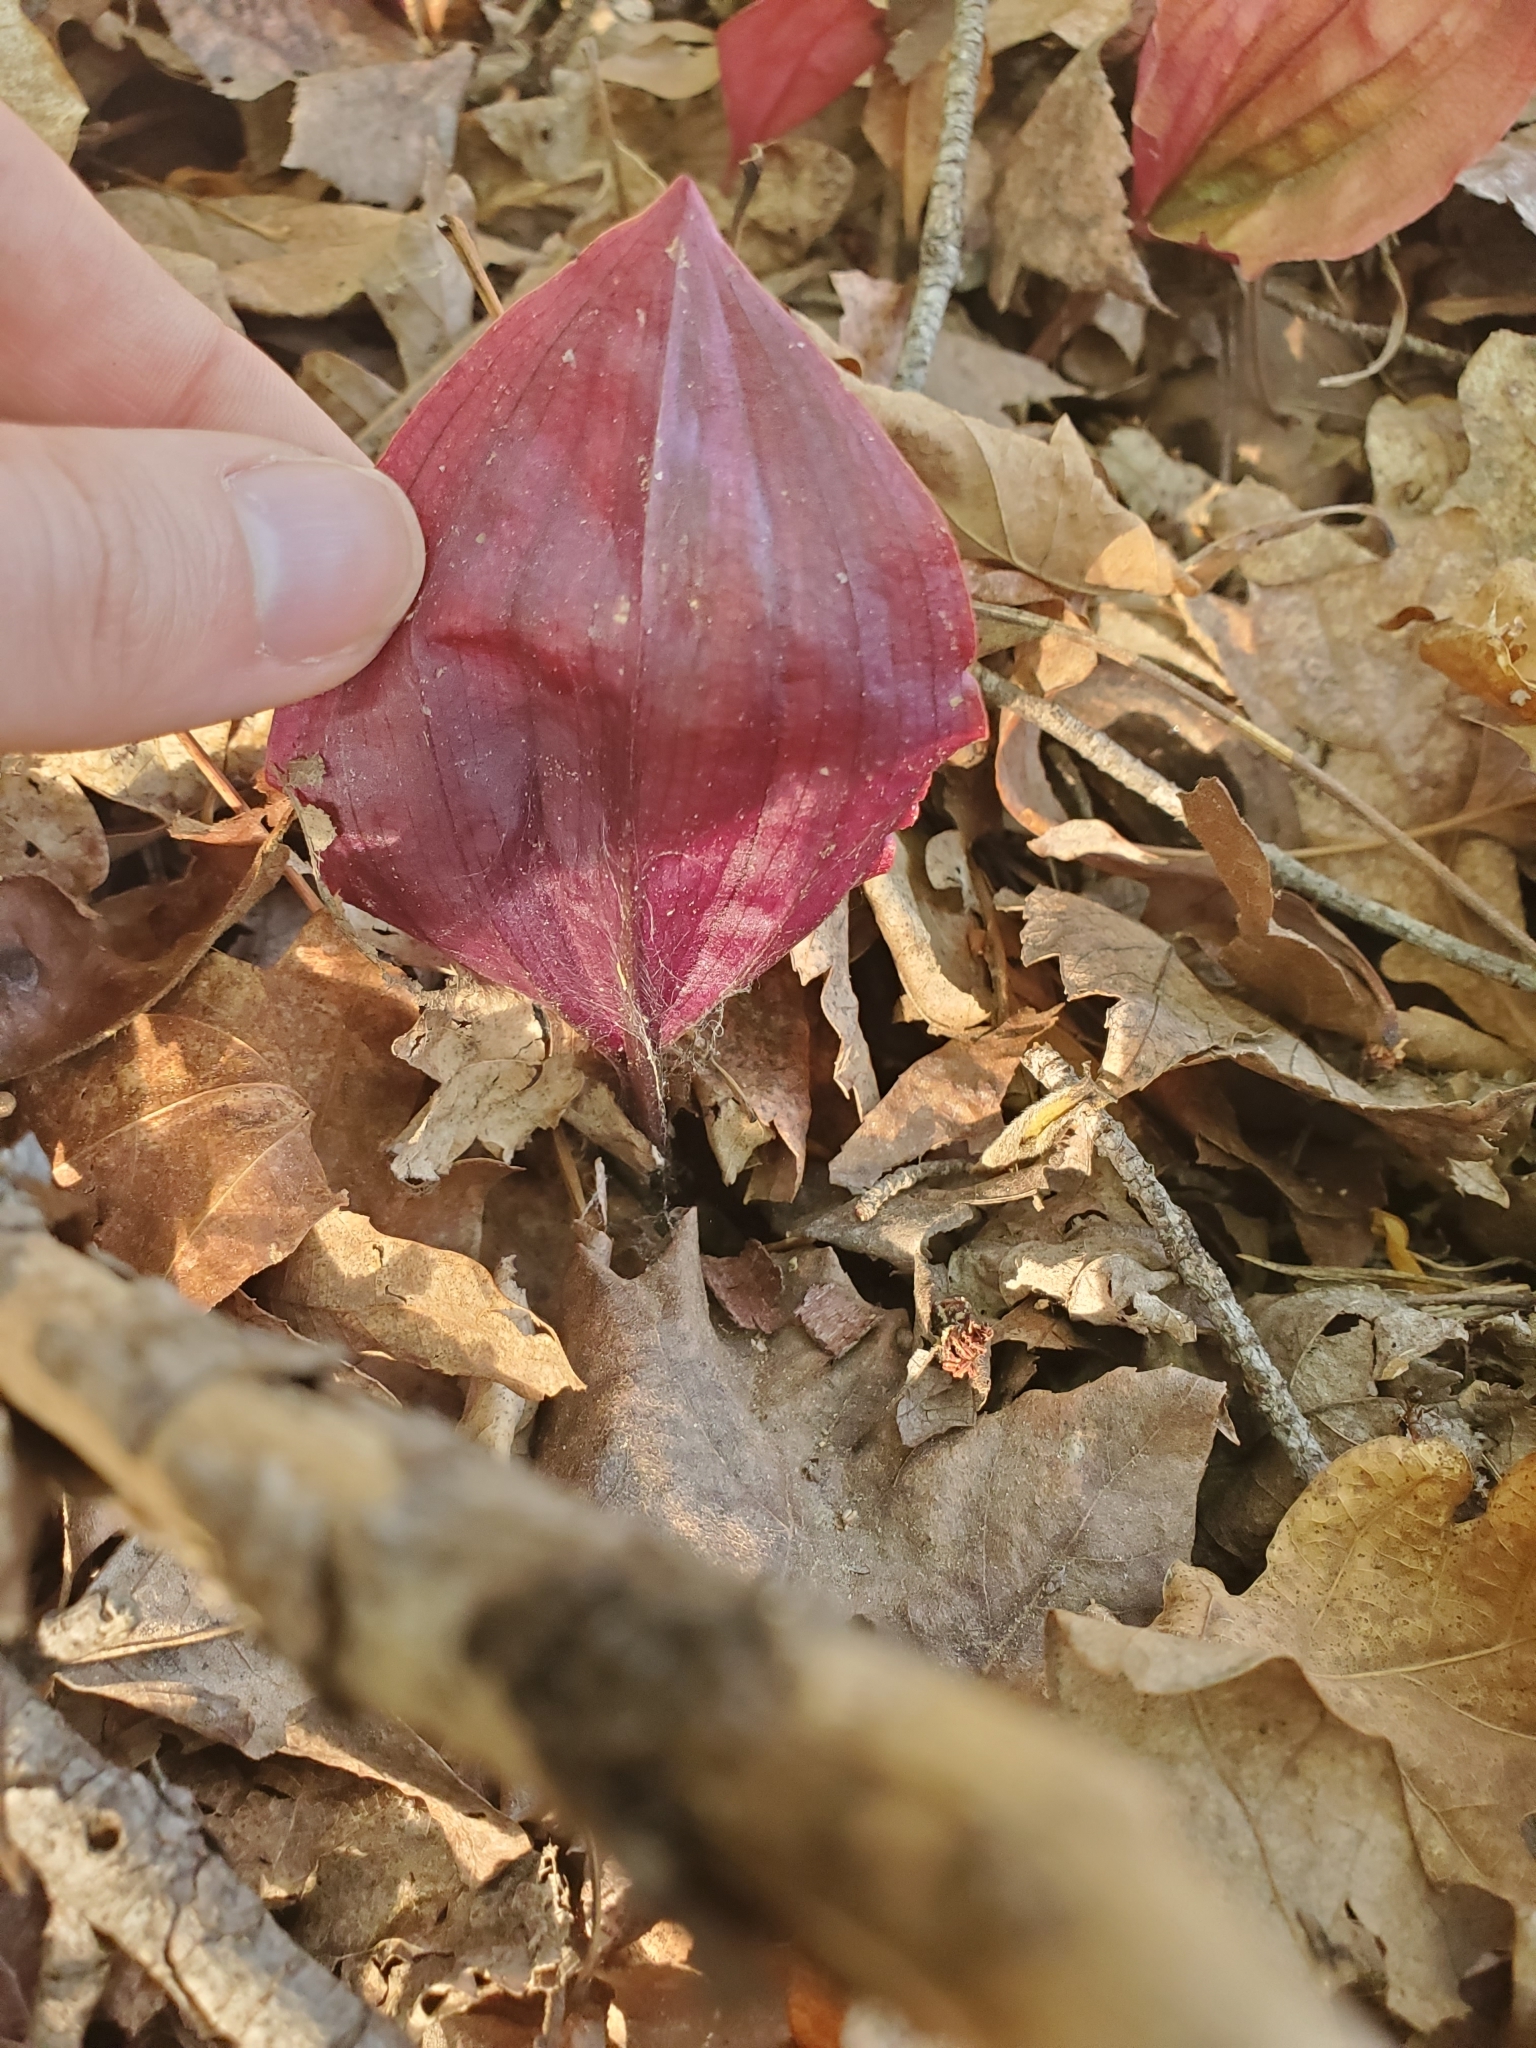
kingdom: Plantae
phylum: Tracheophyta
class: Liliopsida
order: Asparagales
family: Orchidaceae
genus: Tipularia
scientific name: Tipularia discolor
